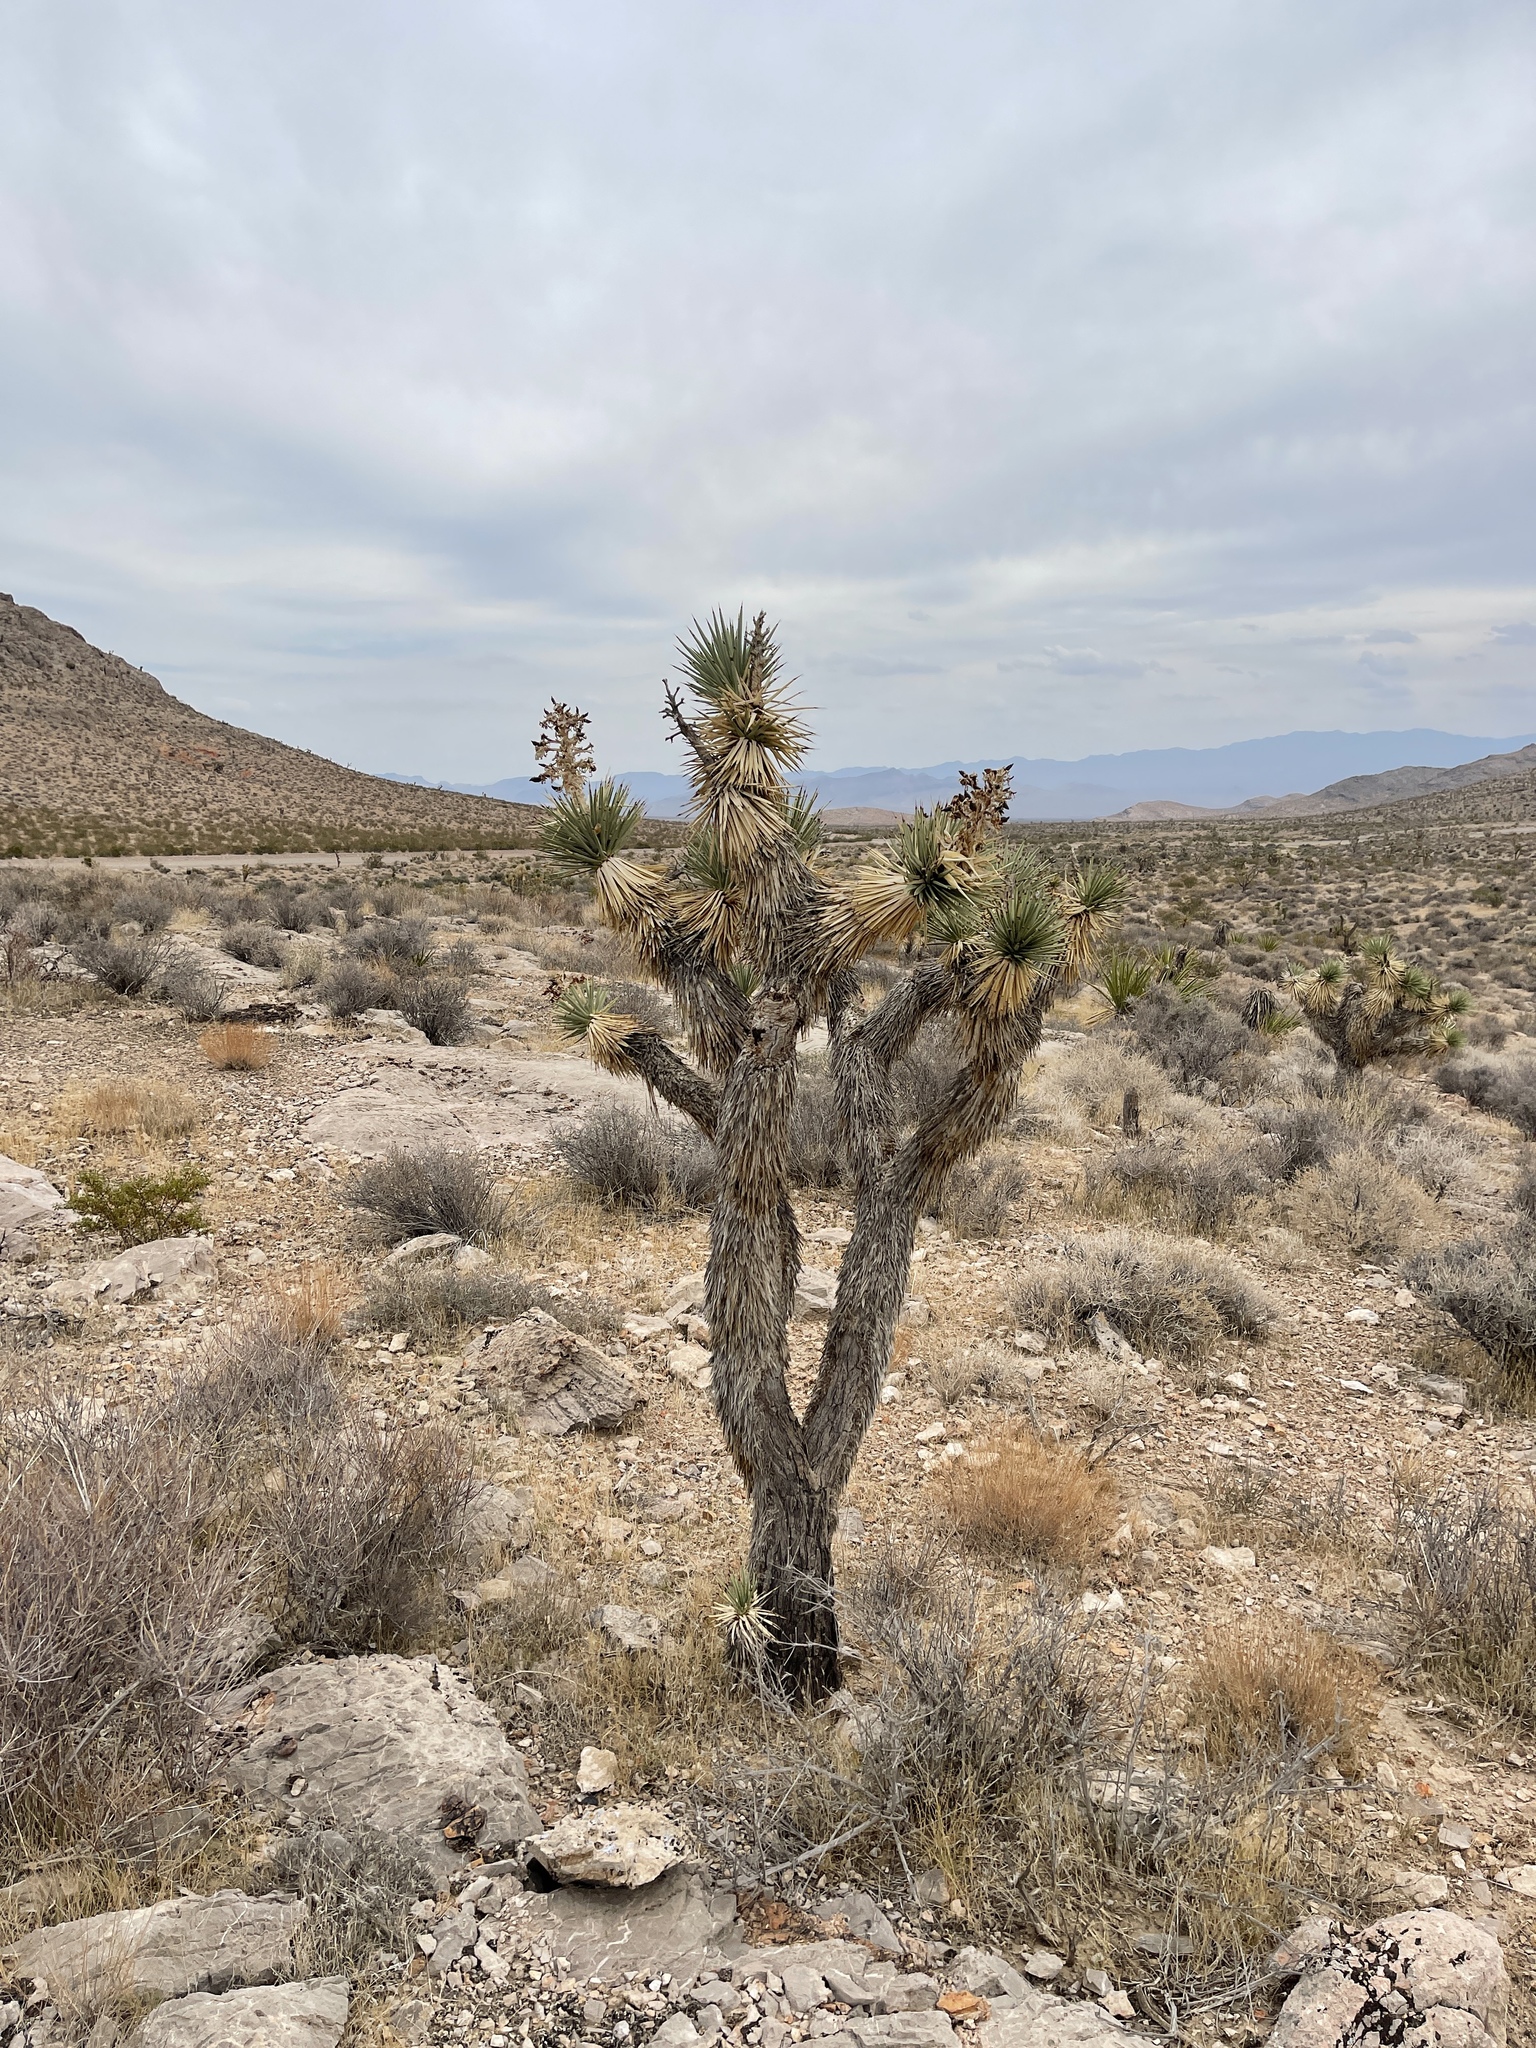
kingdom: Plantae
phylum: Tracheophyta
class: Liliopsida
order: Asparagales
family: Asparagaceae
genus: Yucca
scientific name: Yucca brevifolia
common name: Joshua tree
